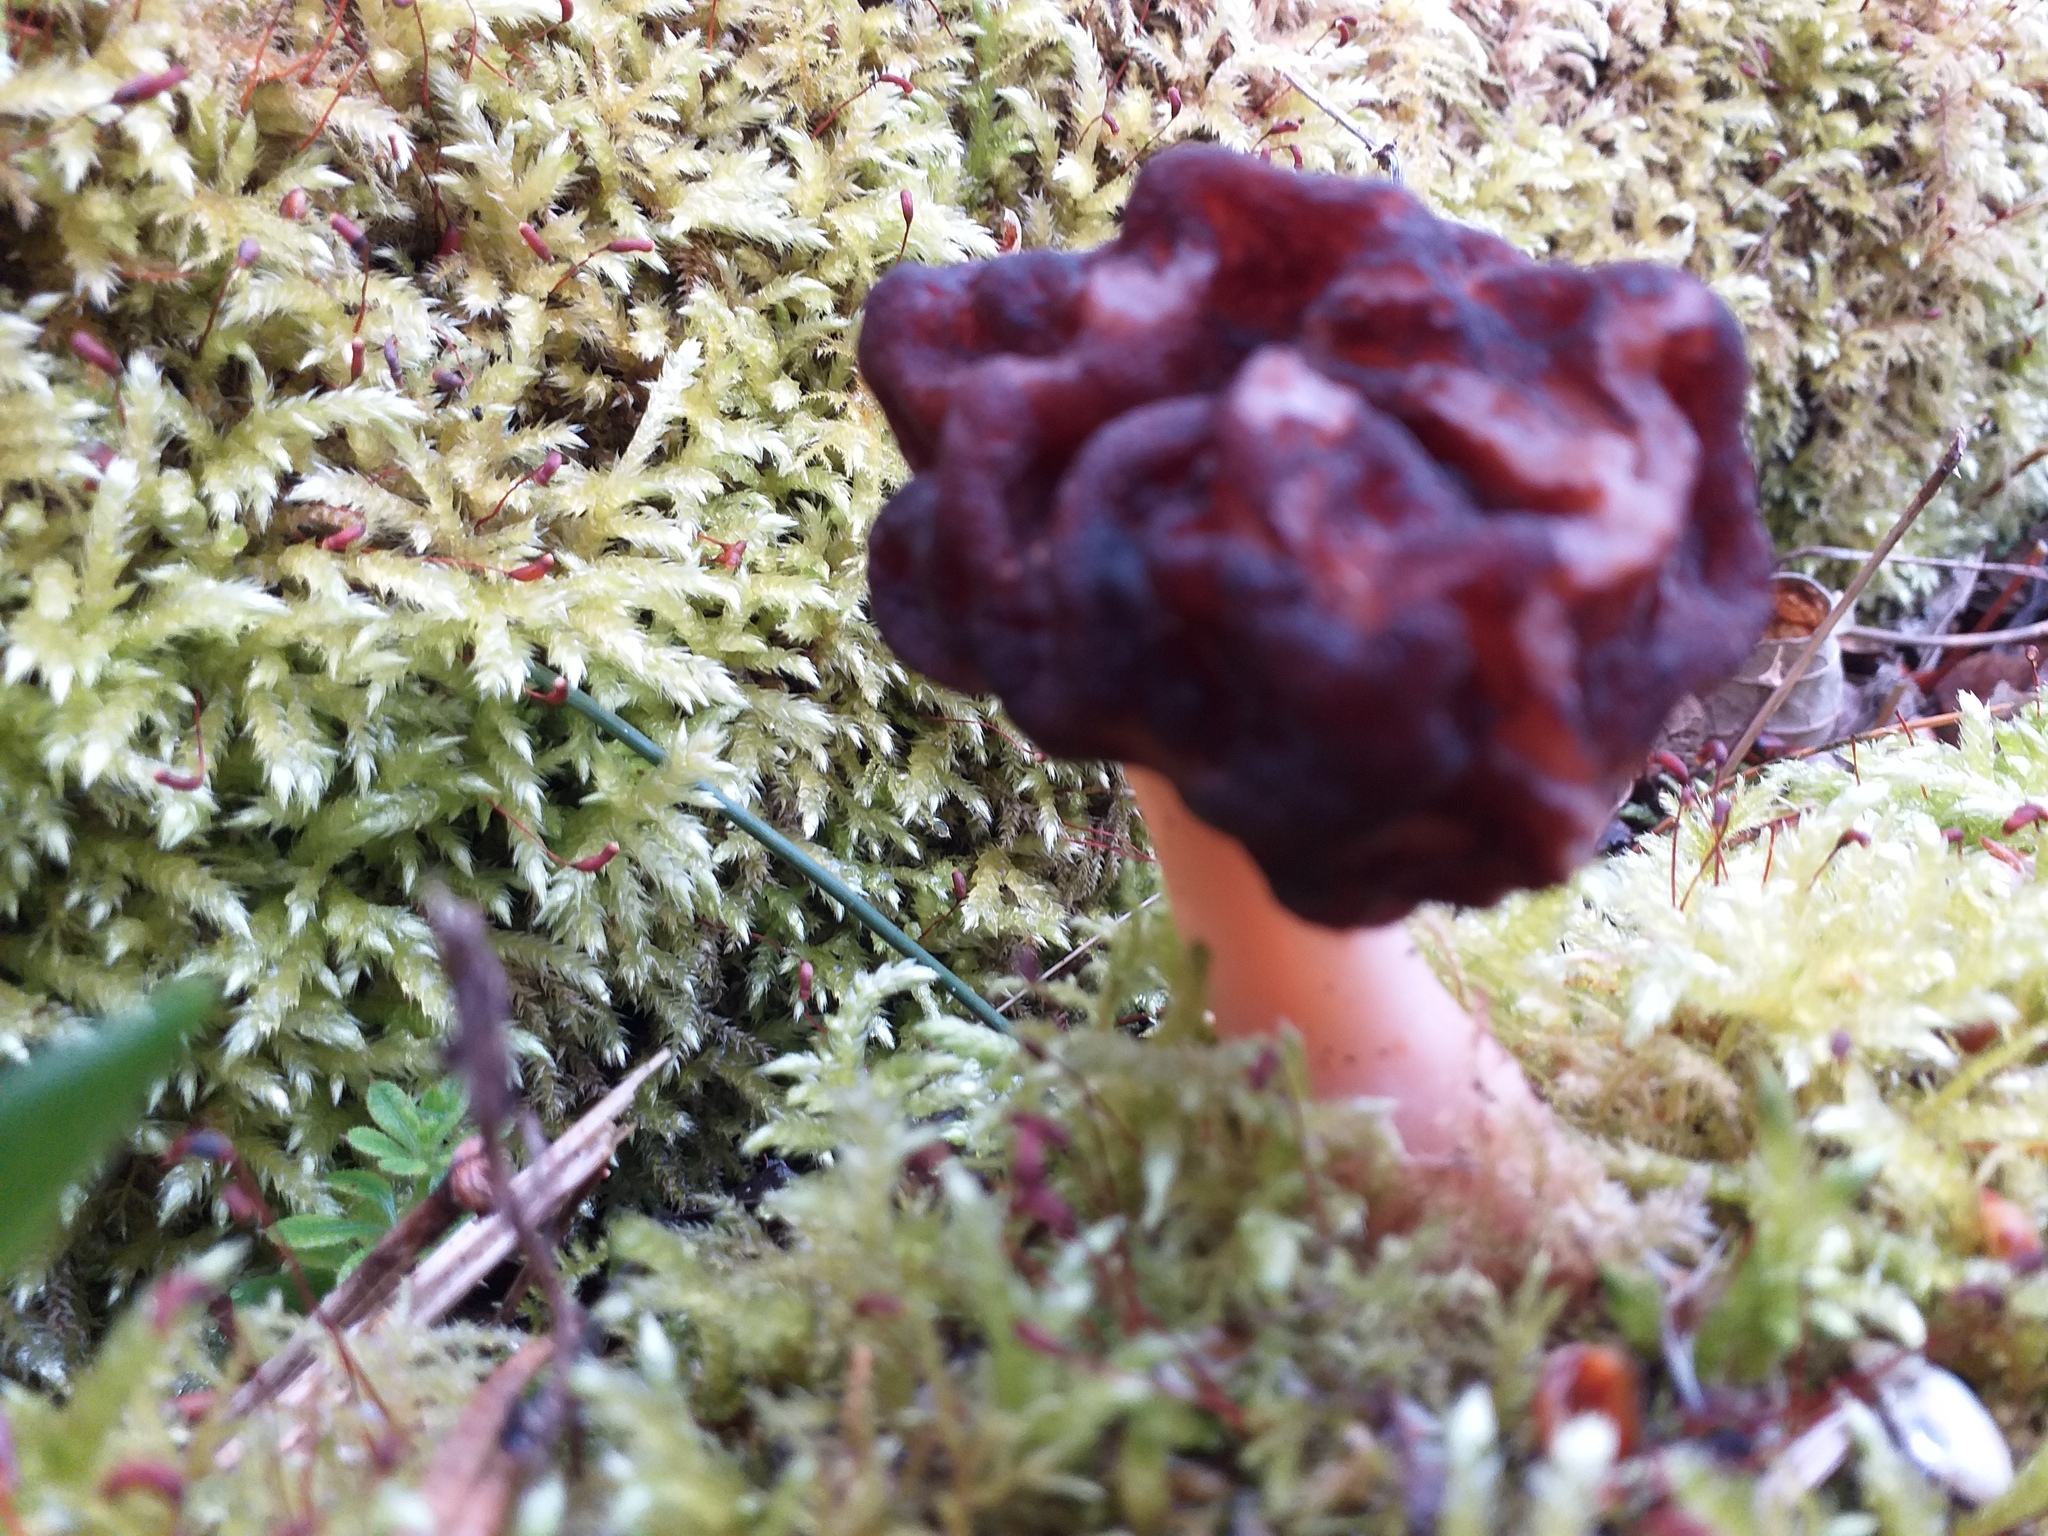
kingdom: Fungi
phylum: Ascomycota
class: Pezizomycetes
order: Pezizales
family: Discinaceae
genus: Gyromitra
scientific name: Gyromitra esculenta
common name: False morel
